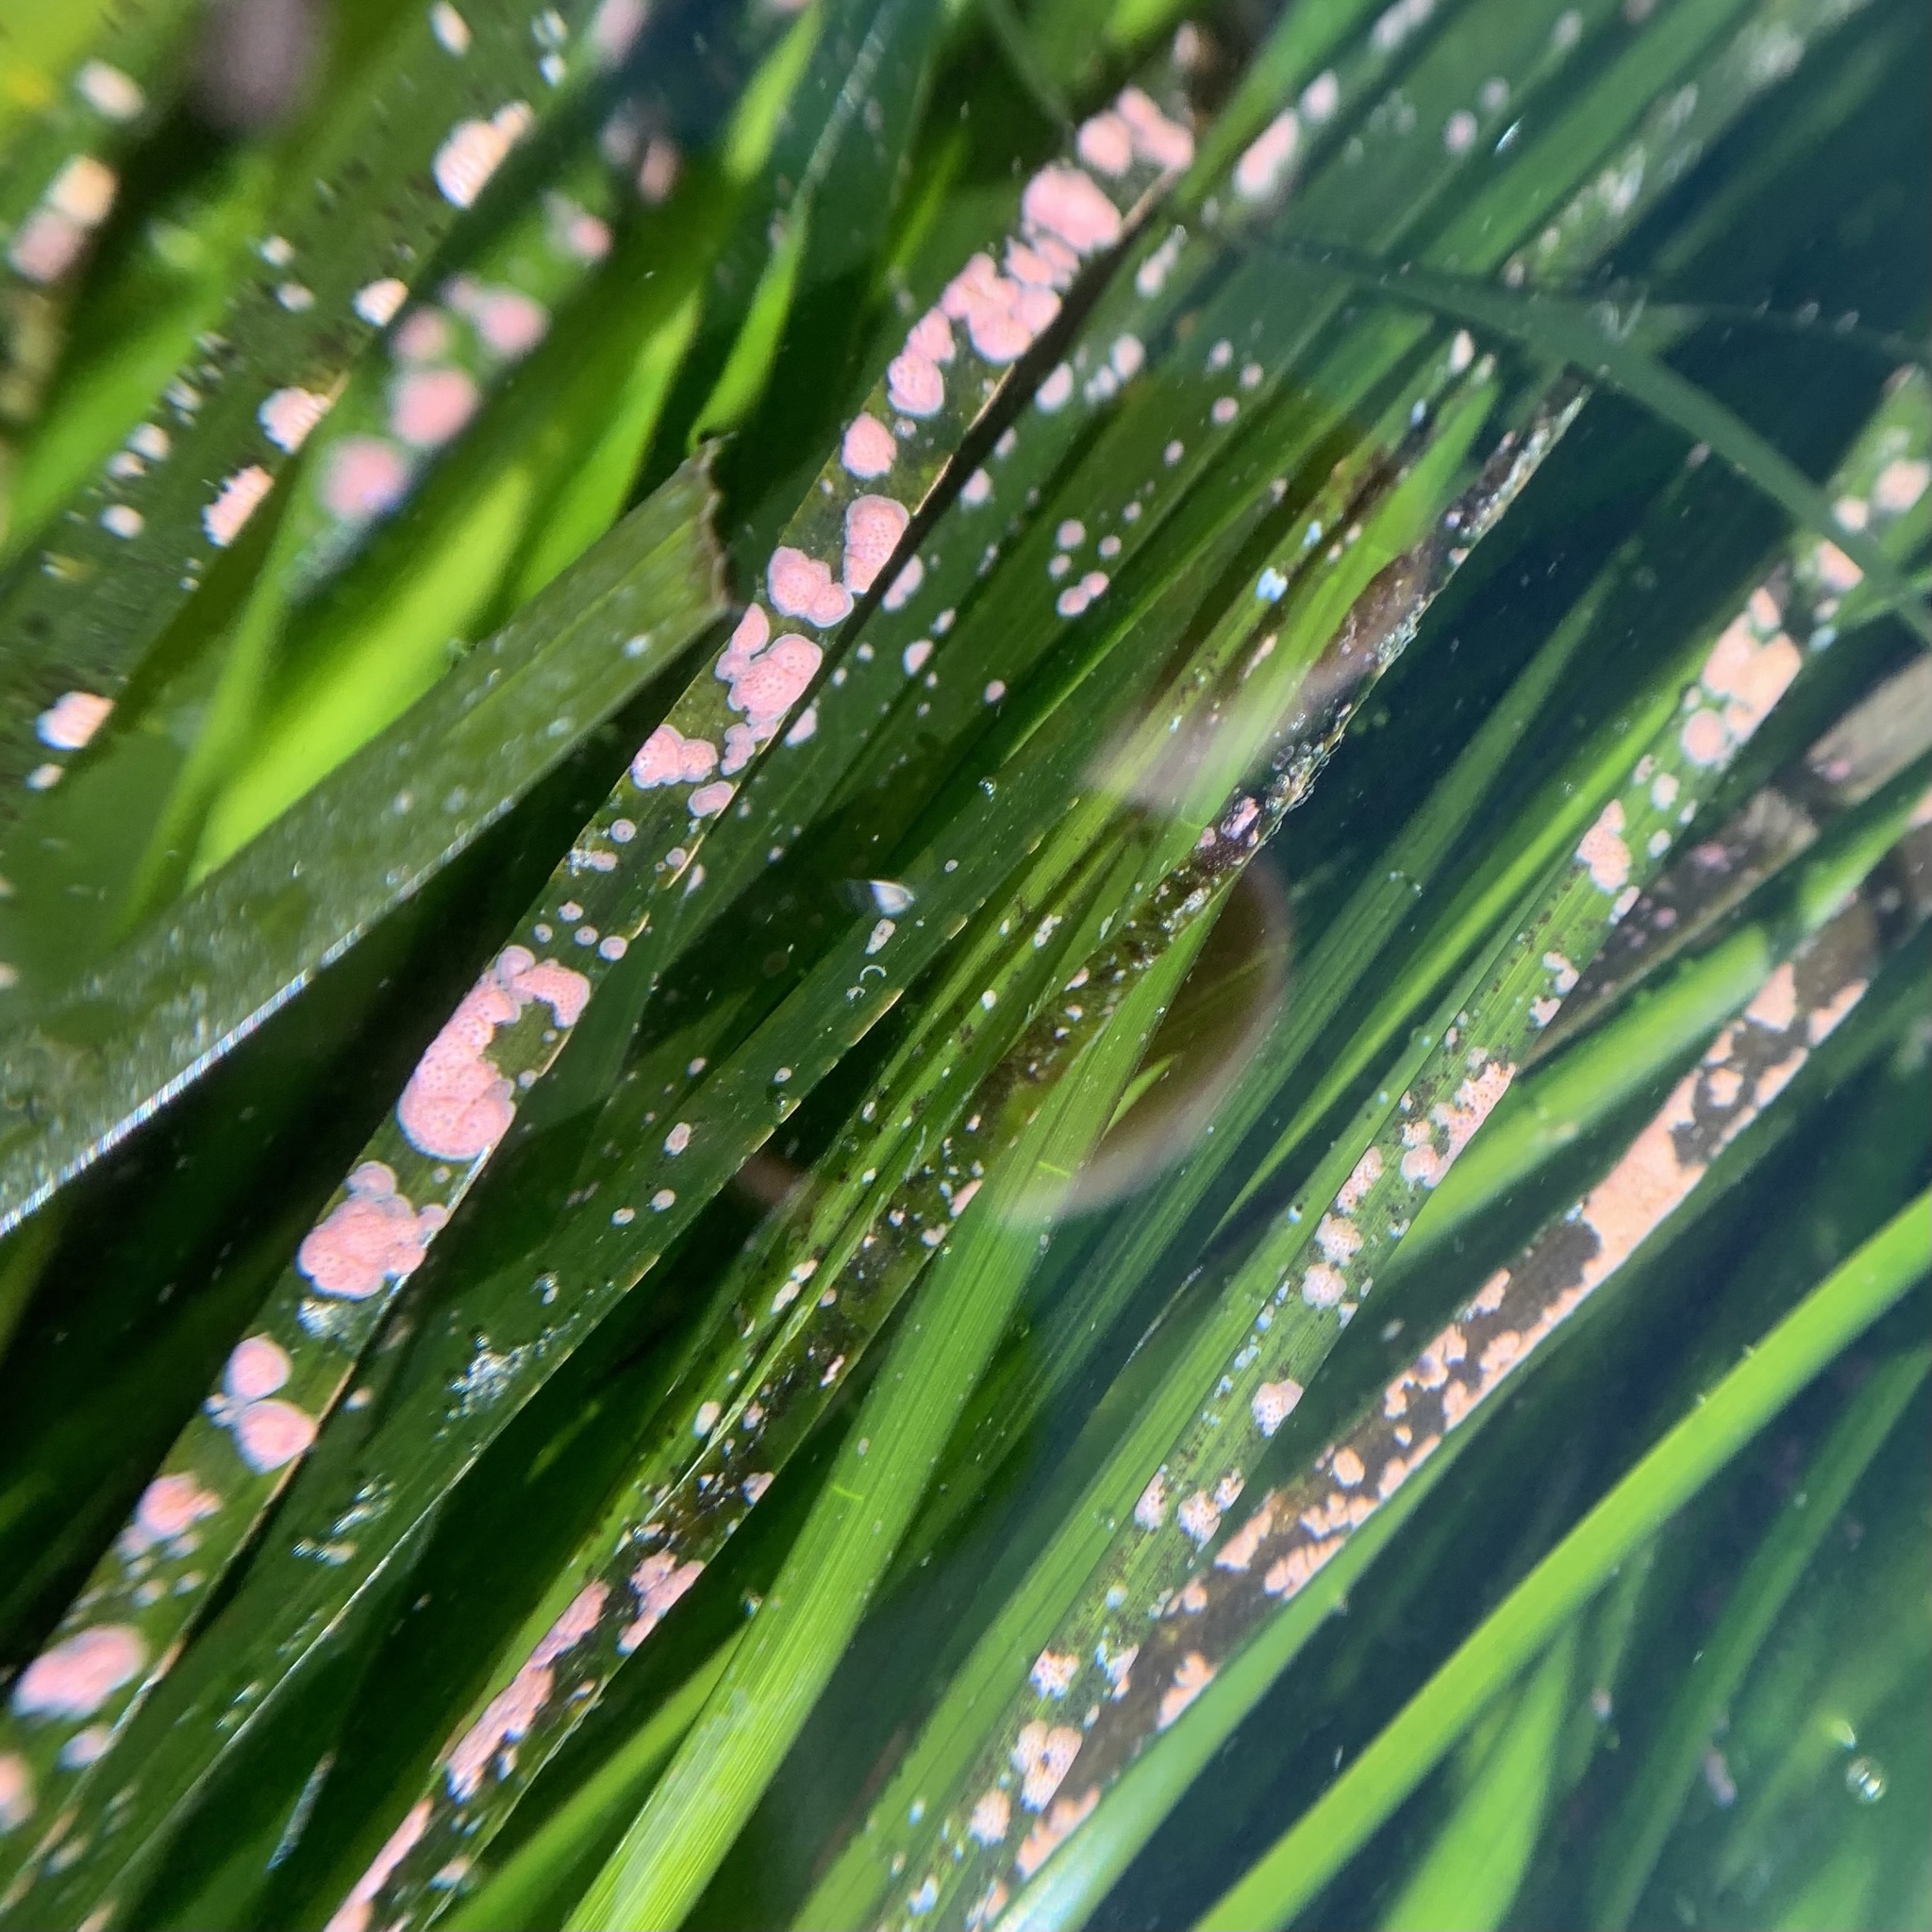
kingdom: Plantae
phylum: Rhodophyta
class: Florideophyceae
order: Corallinales
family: Hapalidiaceae
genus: Melobesia
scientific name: Melobesia mediocris
